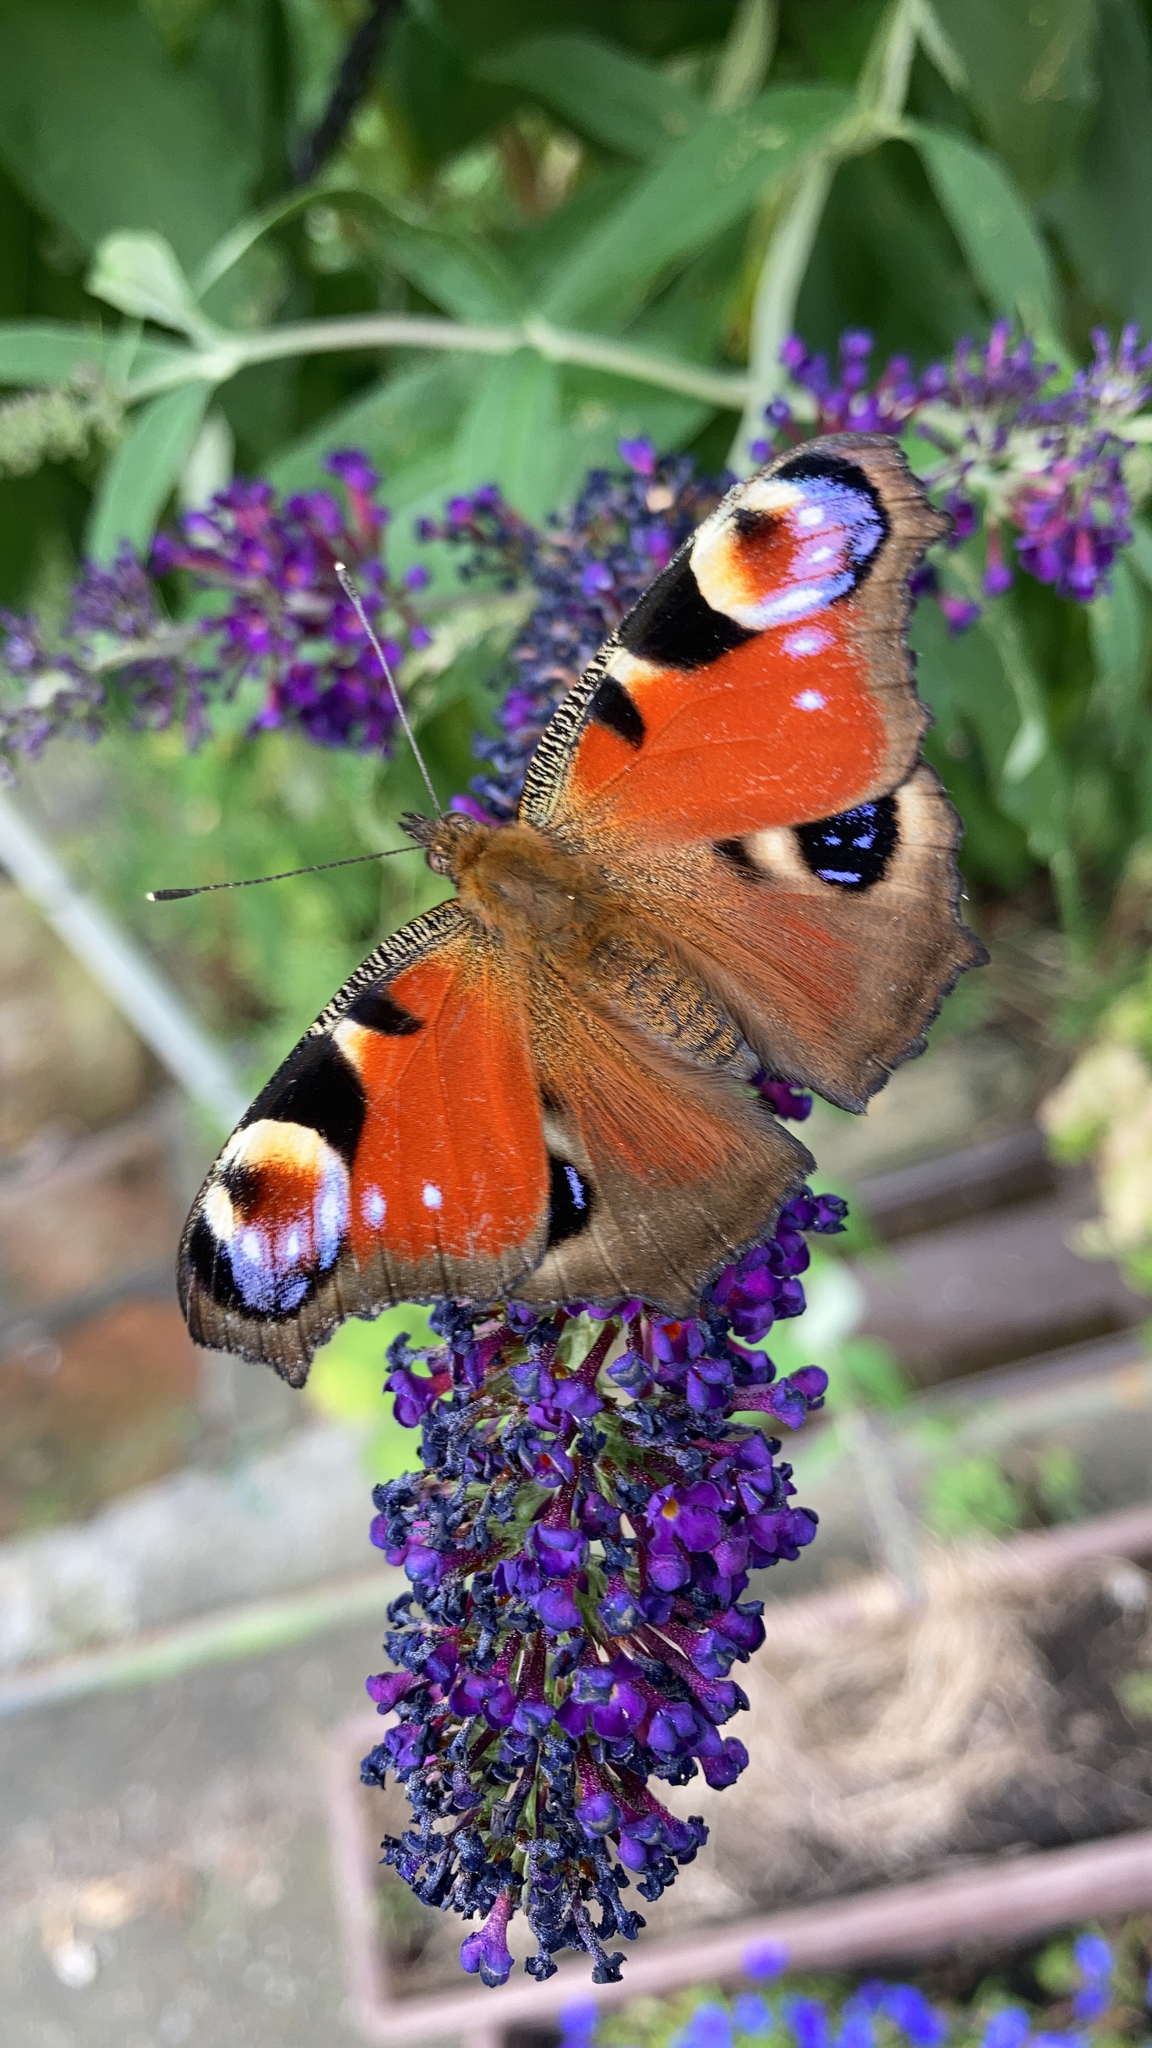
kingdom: Animalia
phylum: Arthropoda
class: Insecta
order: Lepidoptera
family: Nymphalidae
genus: Aglais
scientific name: Aglais io
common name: Peacock
